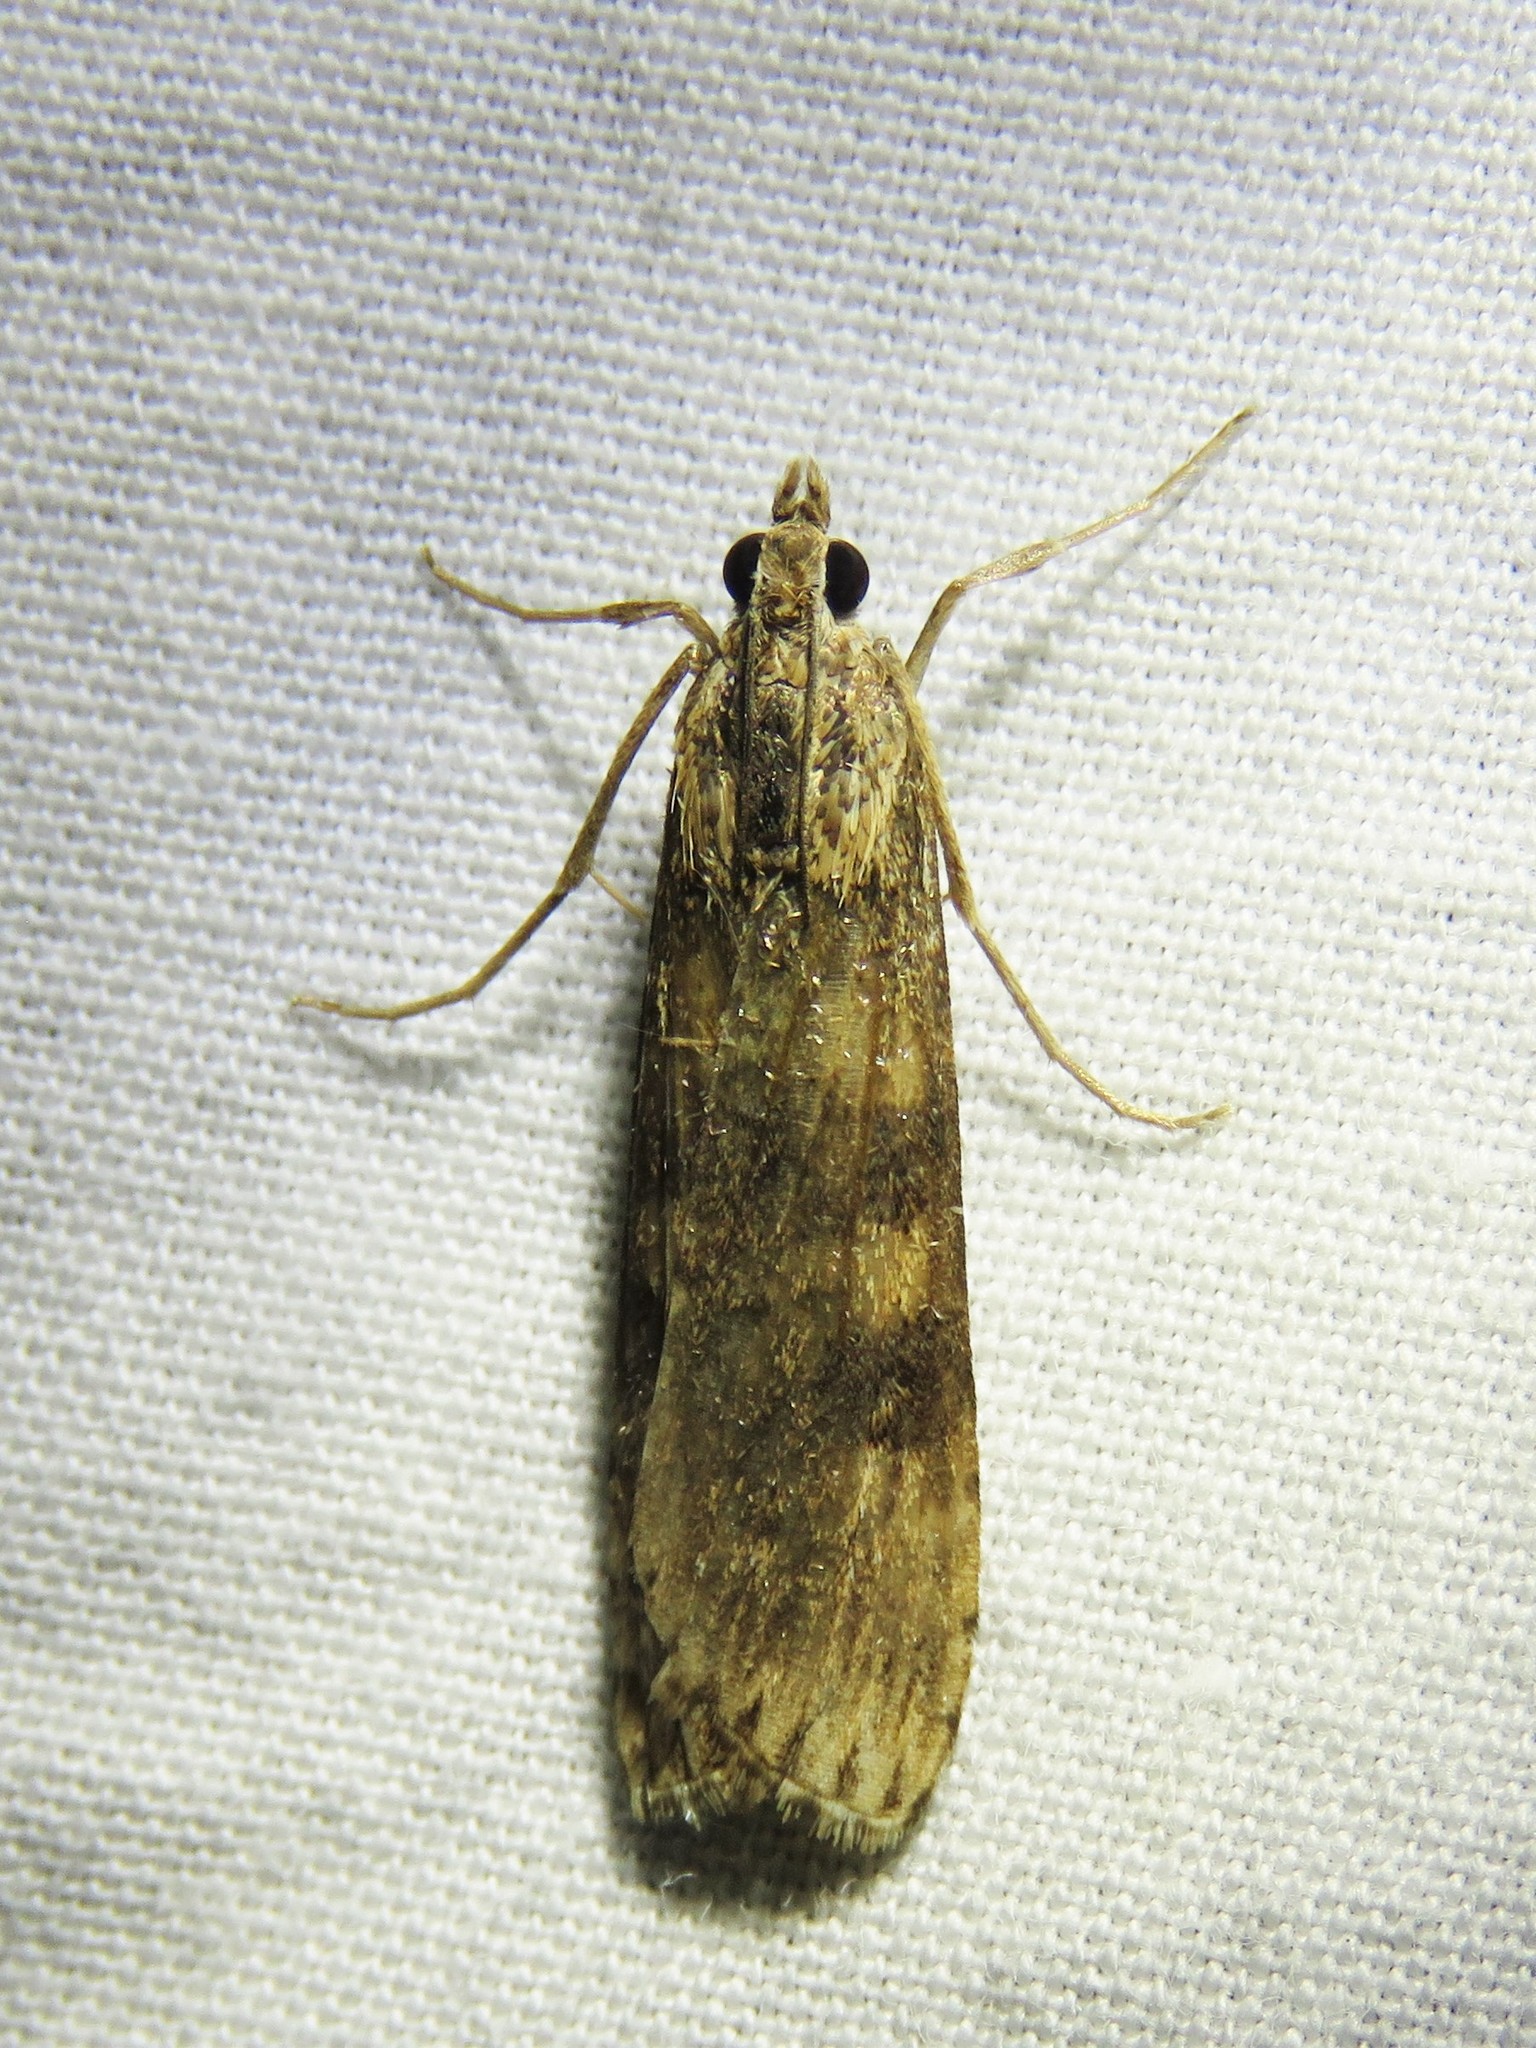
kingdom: Animalia
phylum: Arthropoda
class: Insecta
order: Lepidoptera
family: Crambidae
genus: Nomophila
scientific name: Nomophila nearctica
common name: American rush veneer
